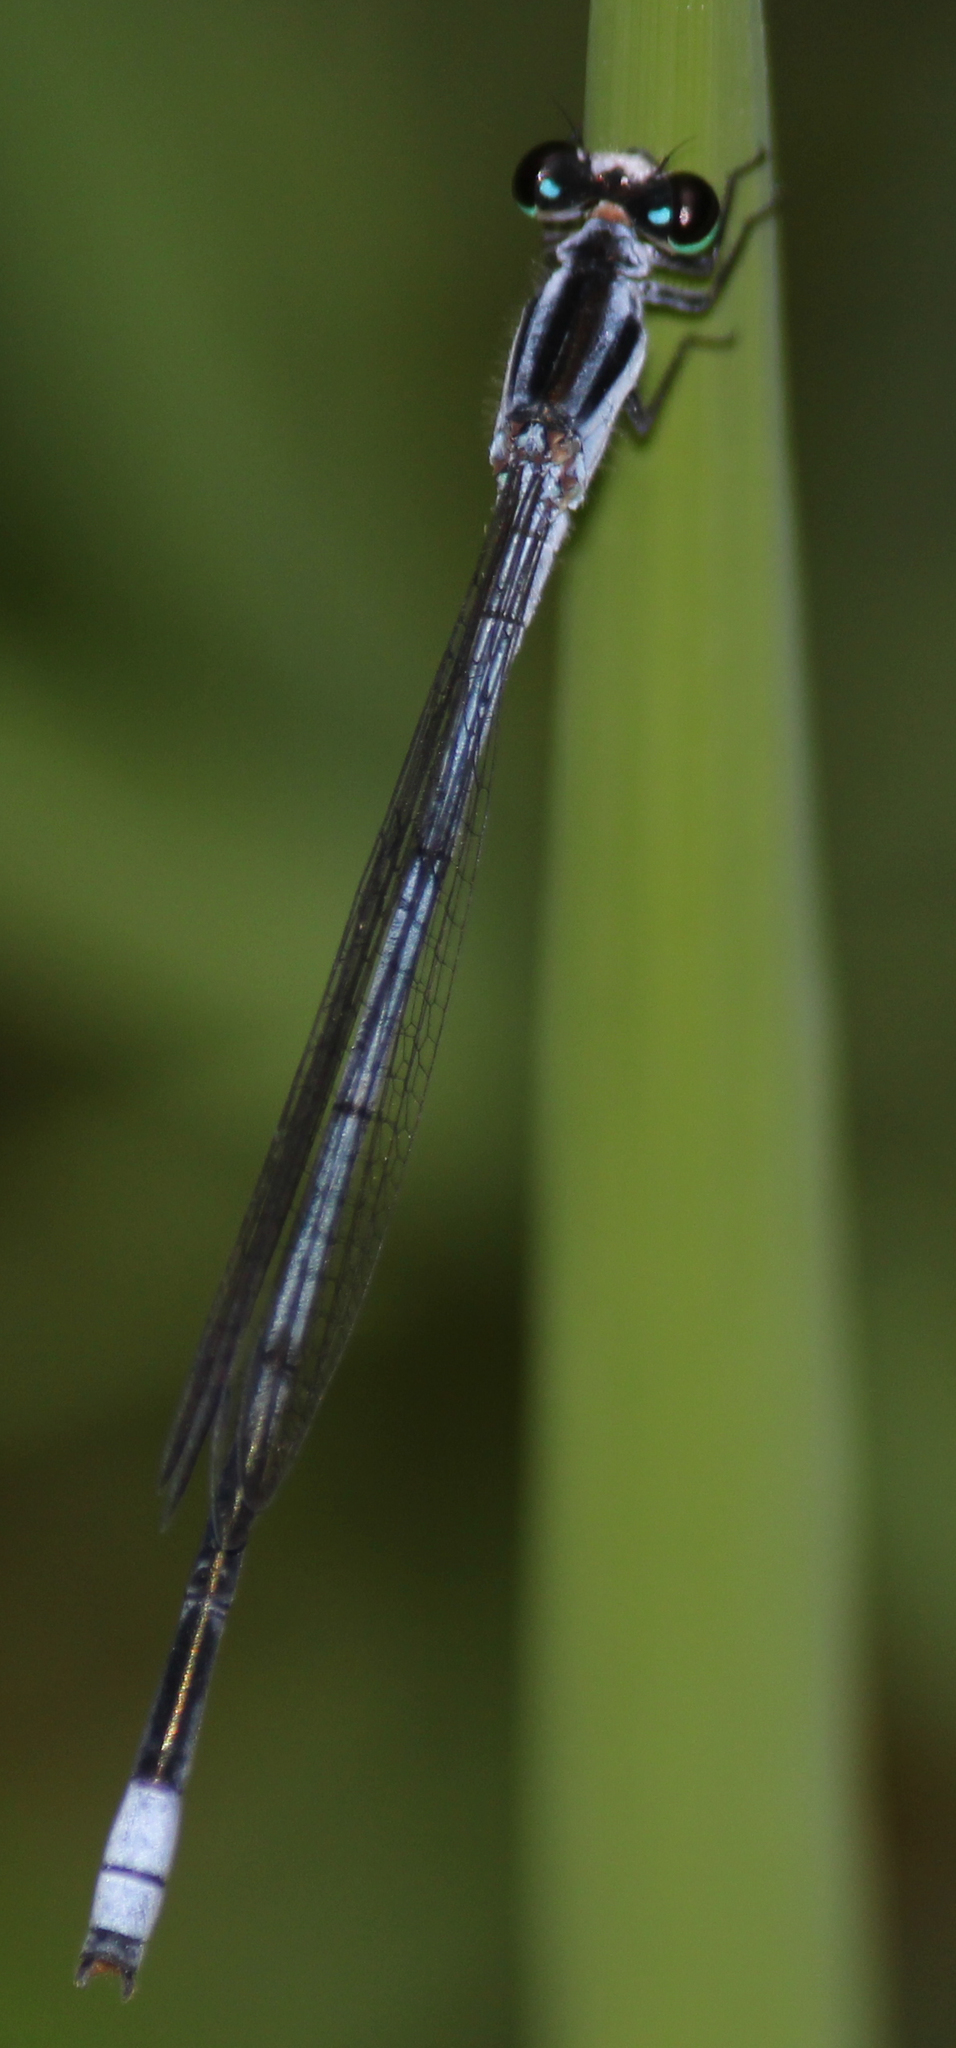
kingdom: Animalia
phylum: Arthropoda
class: Insecta
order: Odonata
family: Coenagrionidae
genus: Pseudagrion
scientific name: Pseudagrion kersteni
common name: Powder-faced sprite
